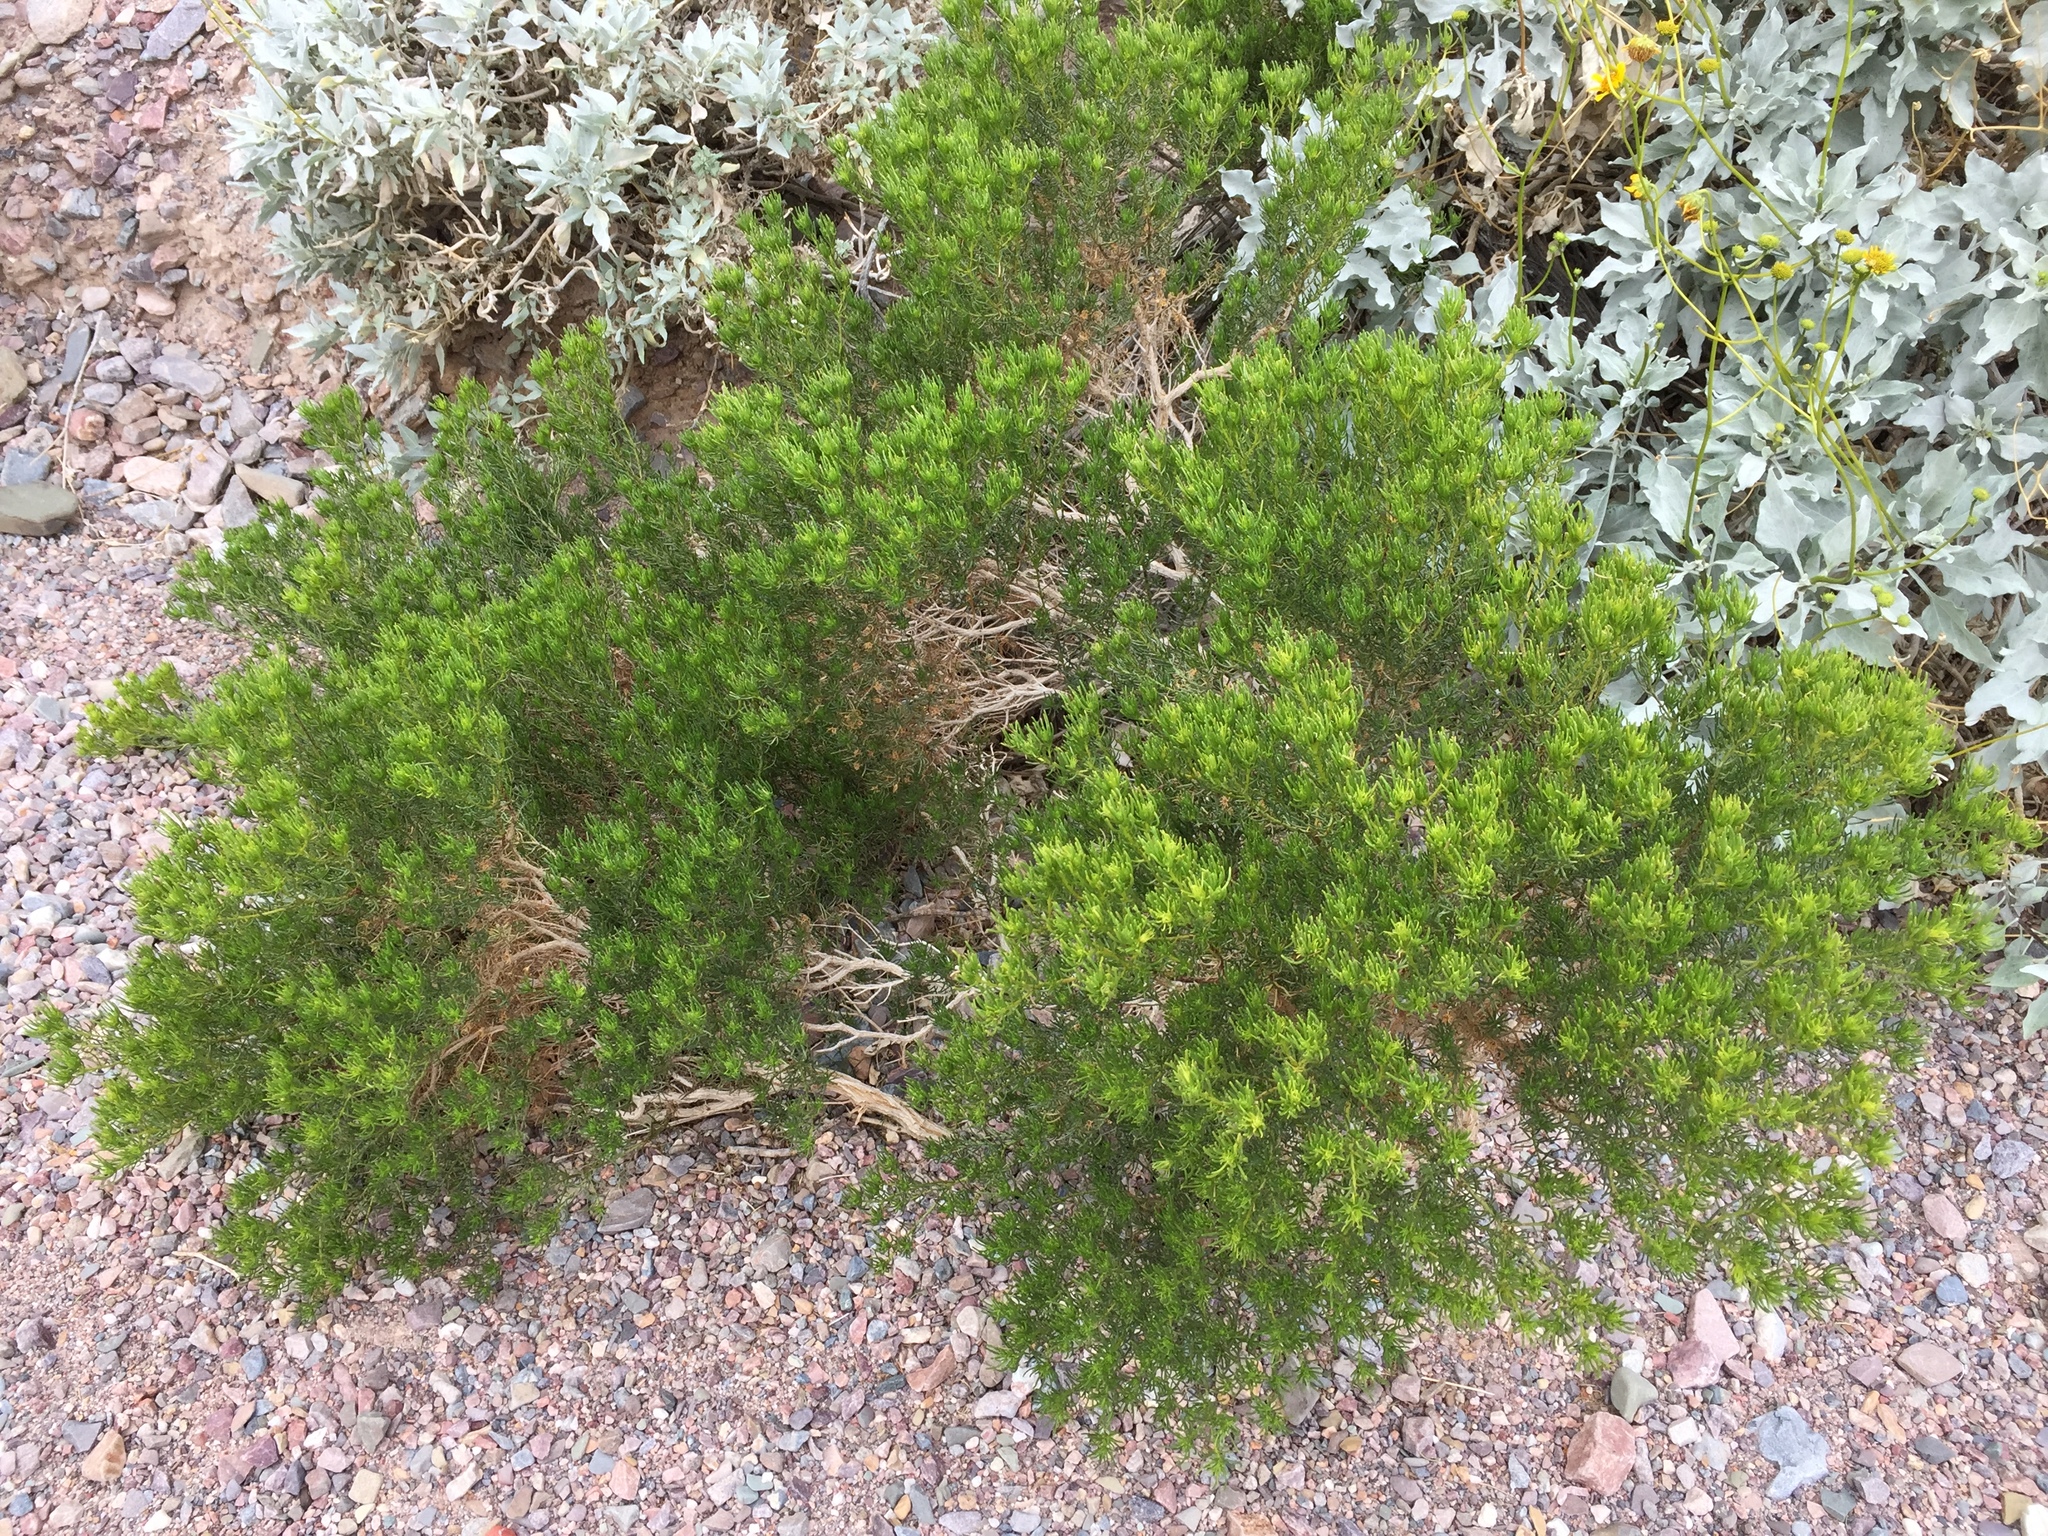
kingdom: Plantae
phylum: Tracheophyta
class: Magnoliopsida
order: Asterales
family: Asteraceae
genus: Peucephyllum
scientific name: Peucephyllum schottii
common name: Pygmy-cedar
